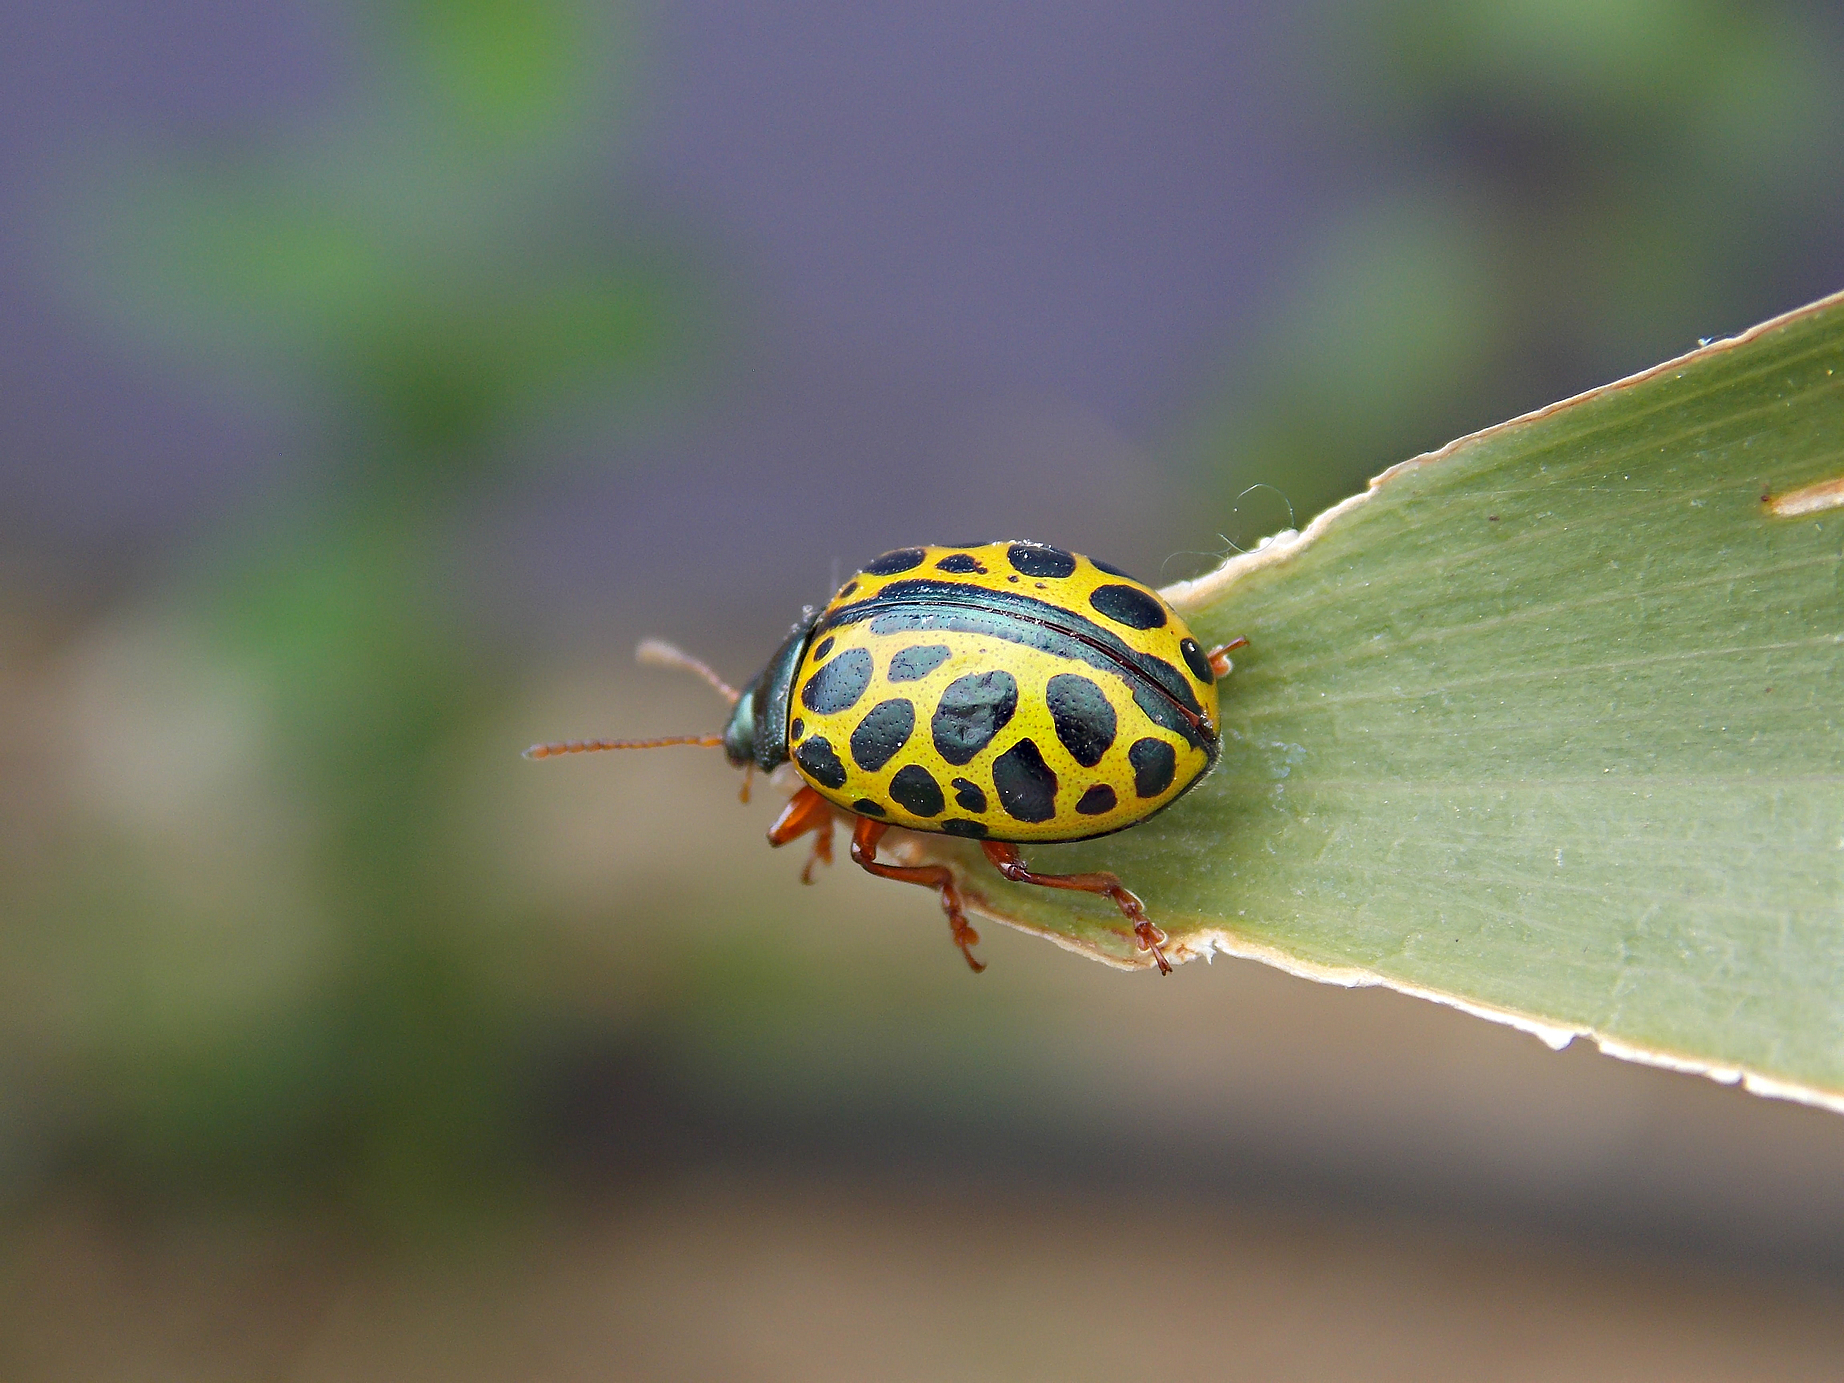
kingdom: Animalia
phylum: Arthropoda
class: Insecta
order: Coleoptera
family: Chrysomelidae
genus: Calligrapha
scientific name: Calligrapha polyspila
